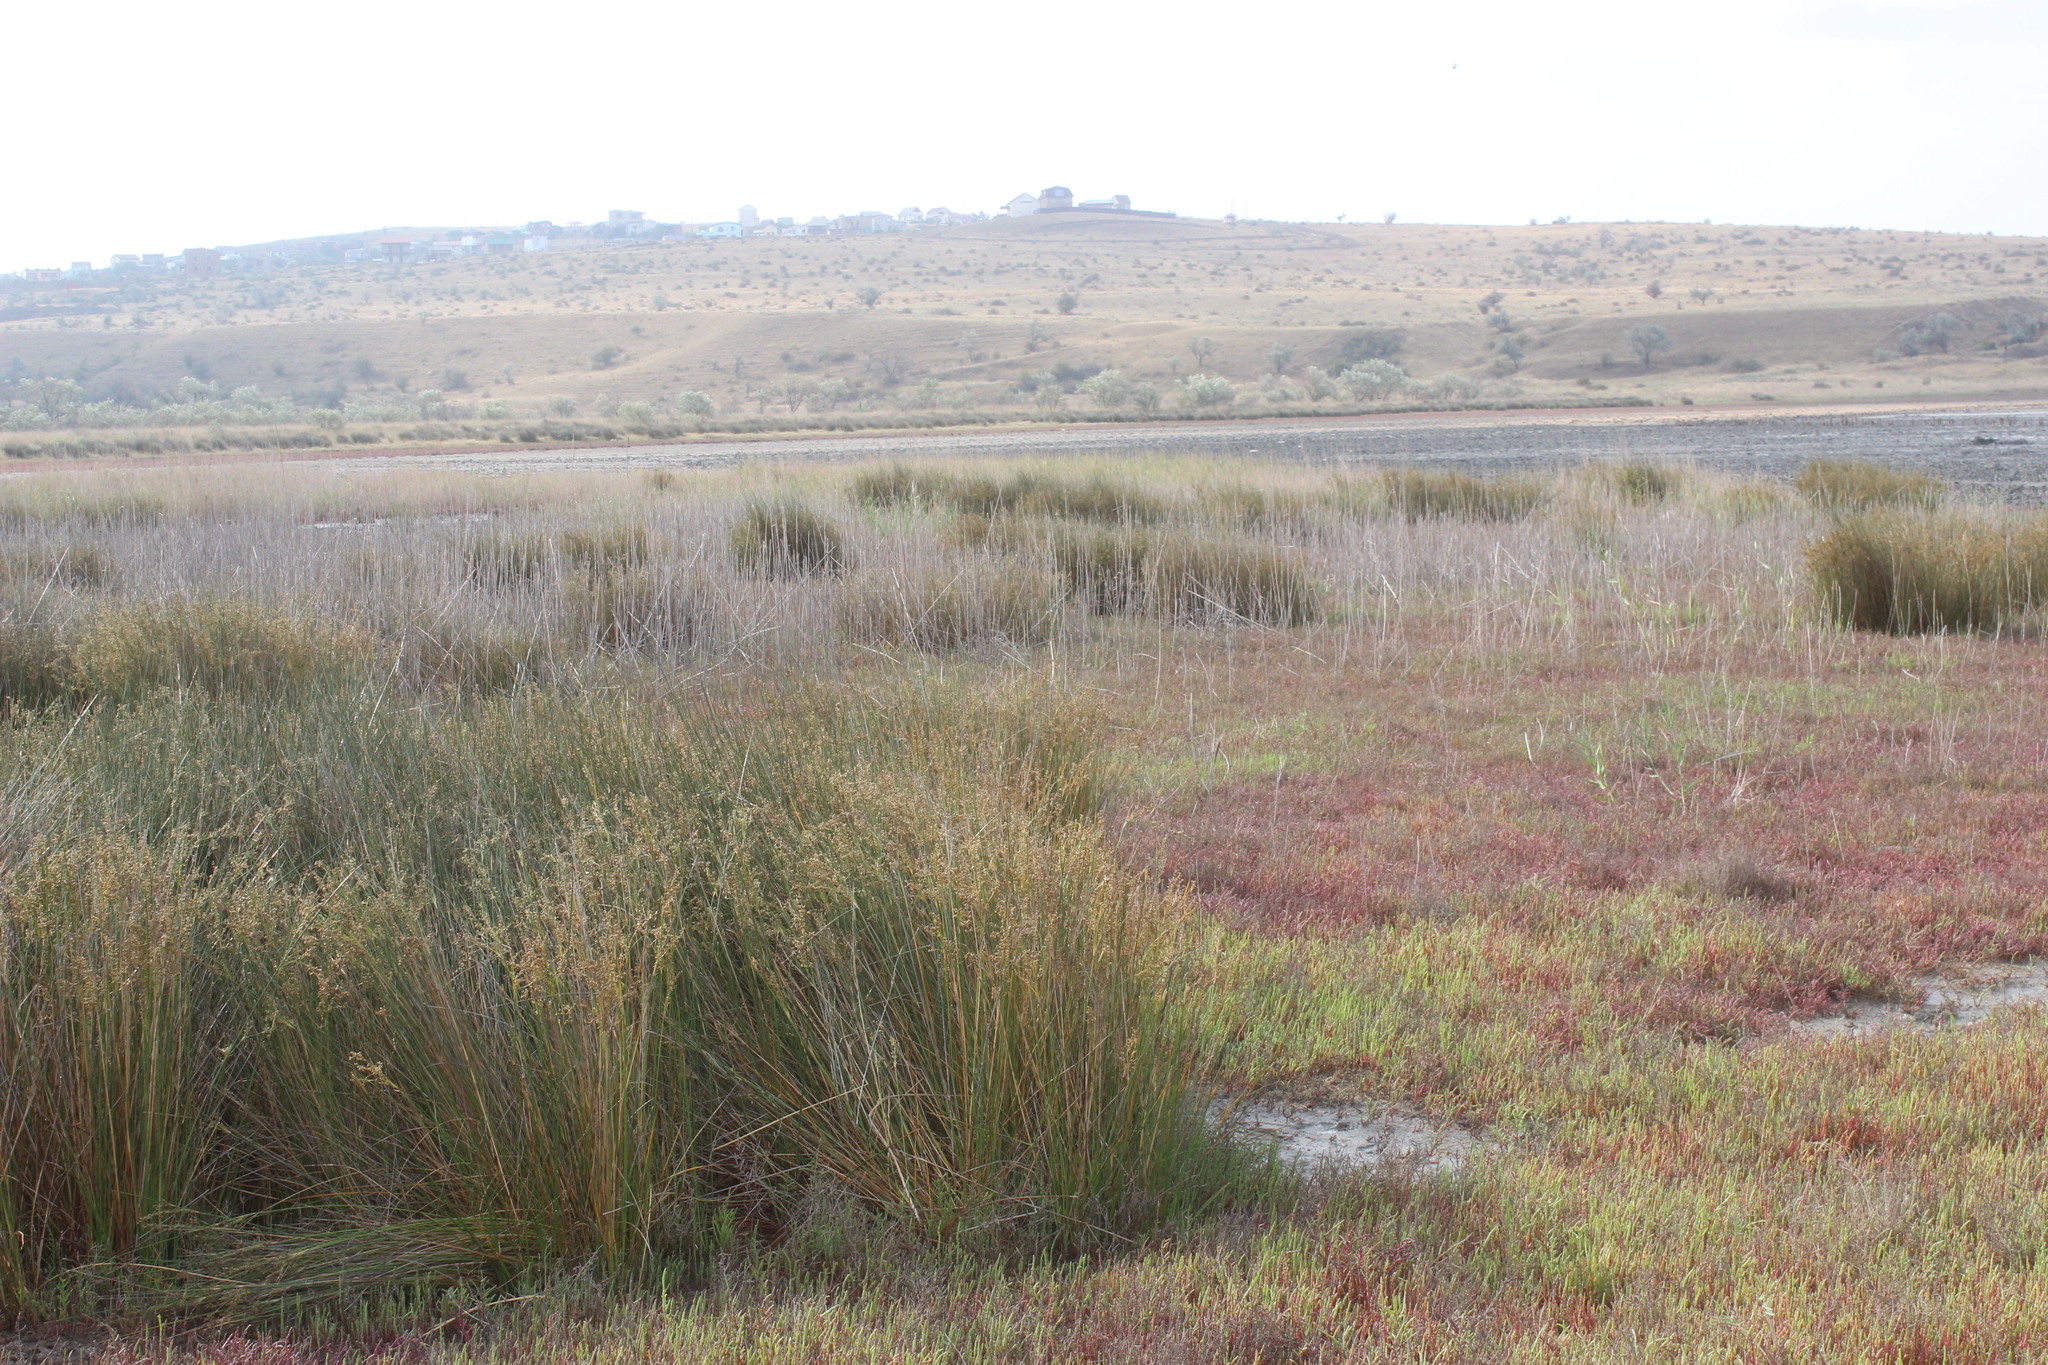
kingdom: Plantae
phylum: Tracheophyta
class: Liliopsida
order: Poales
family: Juncaceae
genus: Juncus
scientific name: Juncus maritimus
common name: Sea rush
